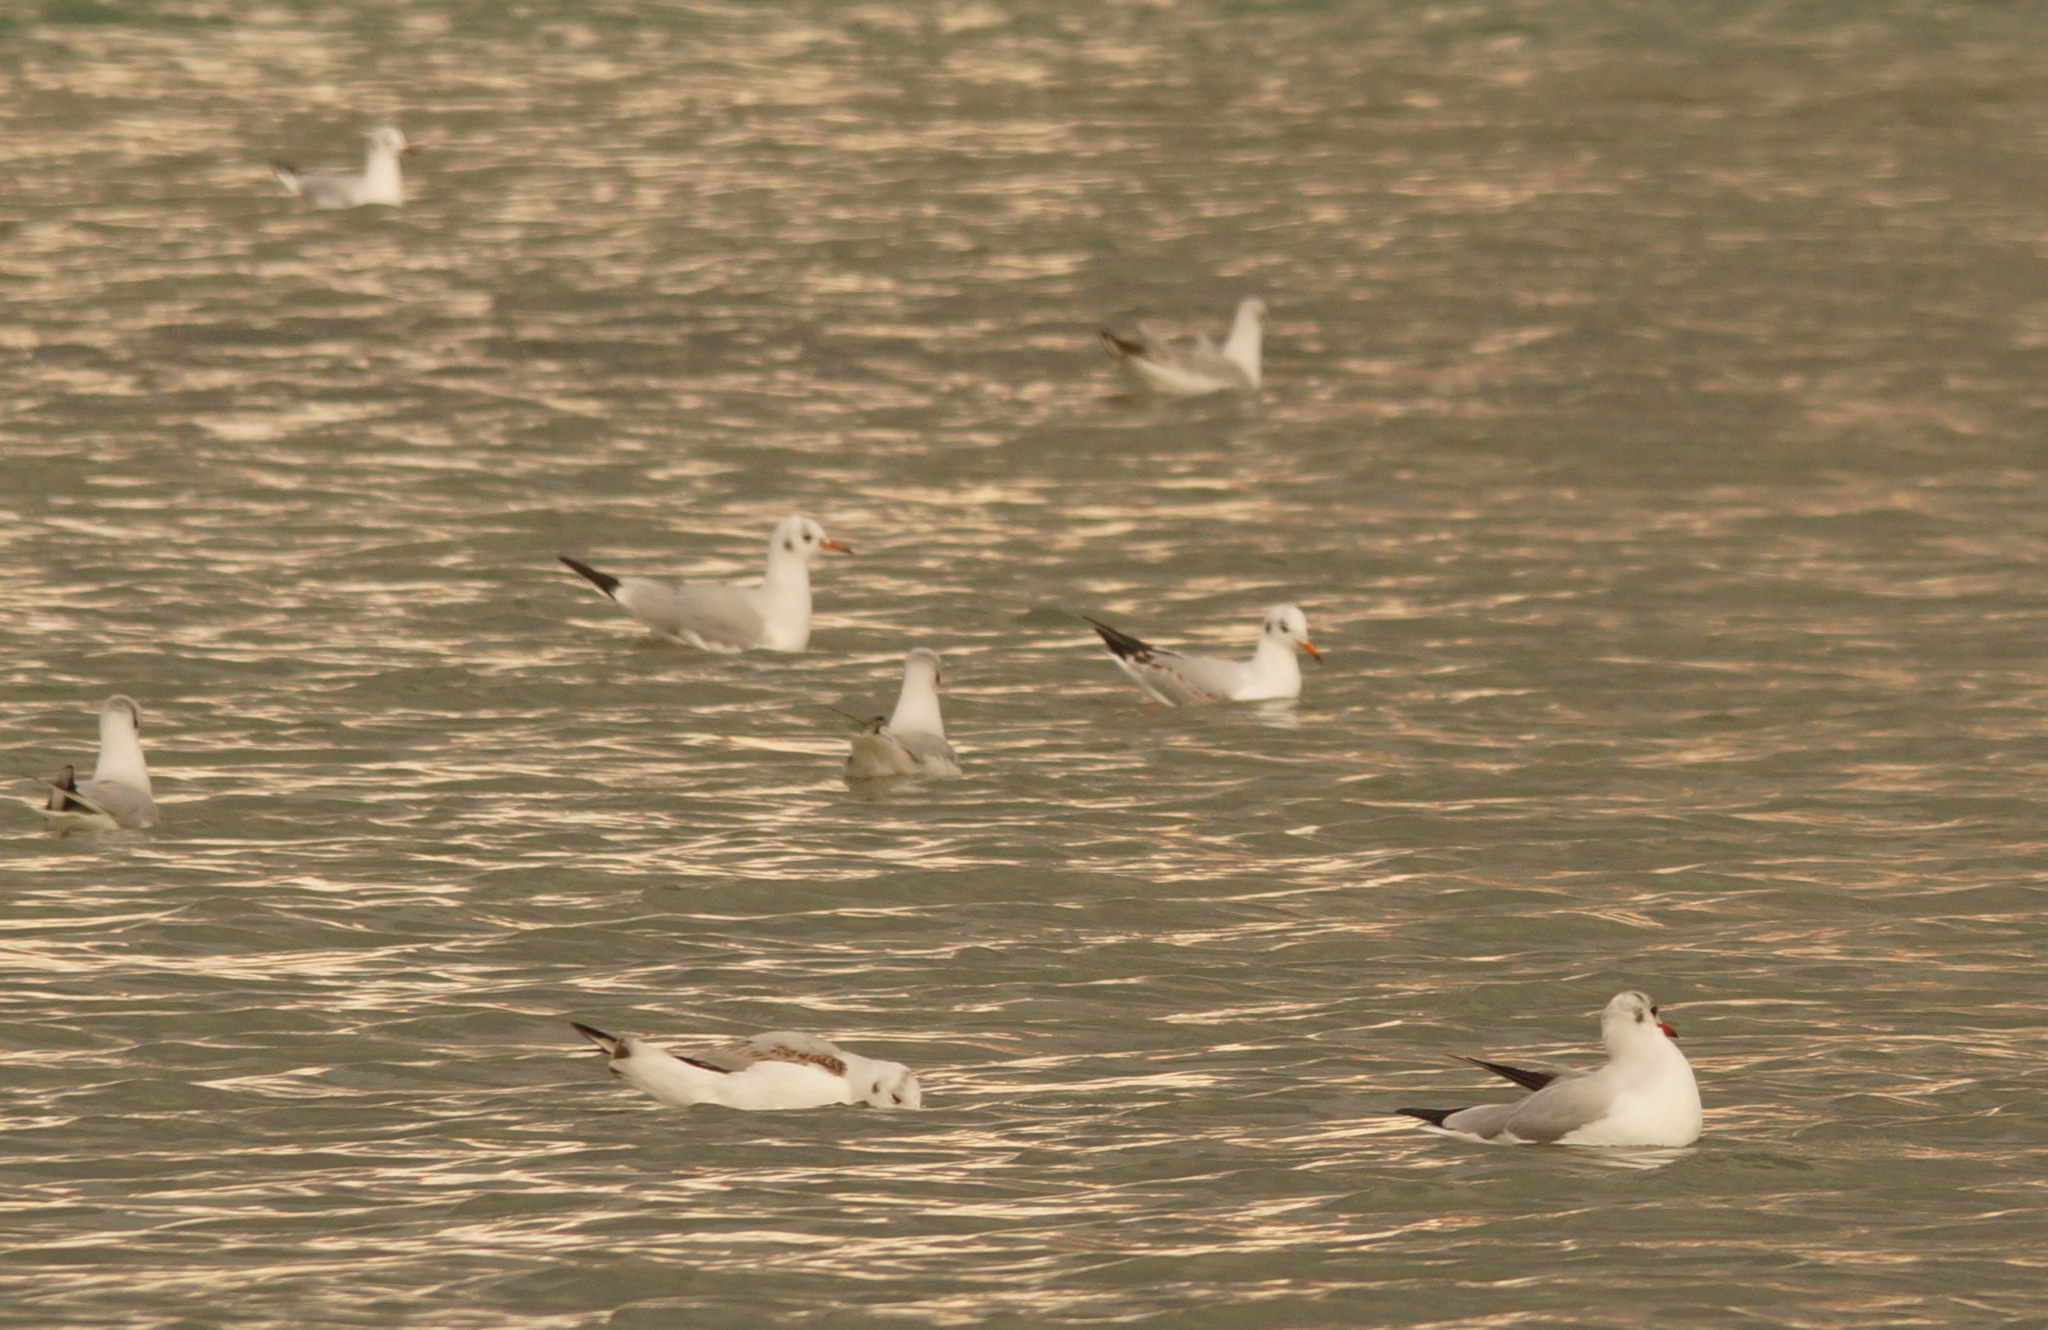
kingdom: Animalia
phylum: Chordata
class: Aves
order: Charadriiformes
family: Laridae
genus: Chroicocephalus
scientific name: Chroicocephalus ridibundus
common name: Black-headed gull
